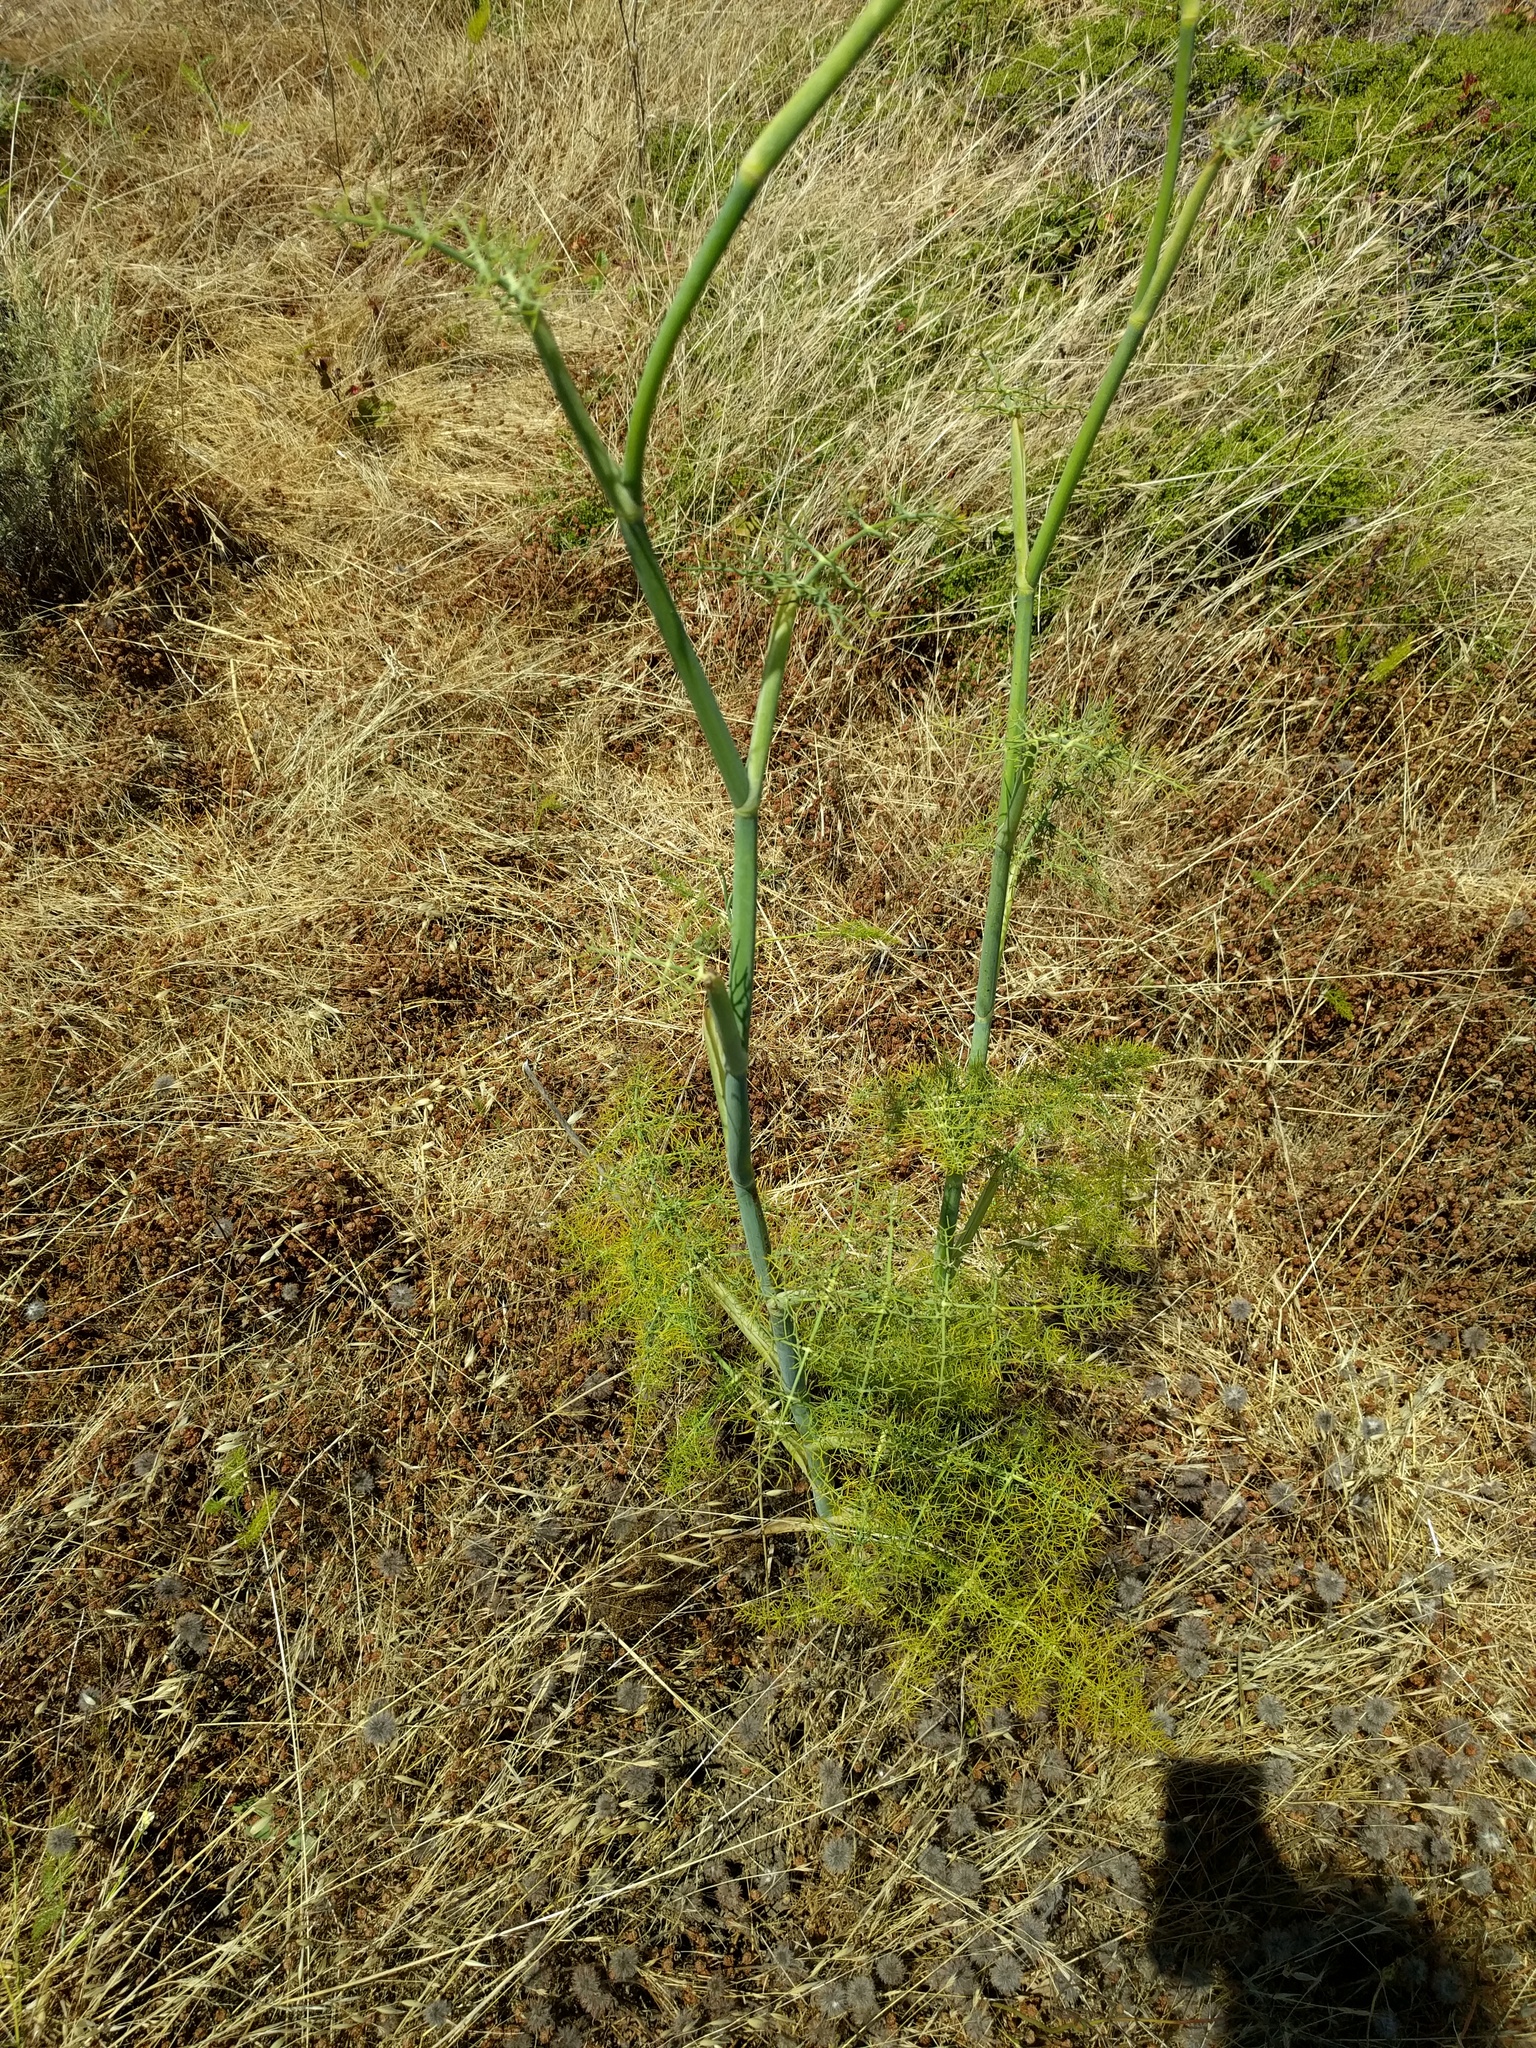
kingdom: Plantae
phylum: Tracheophyta
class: Magnoliopsida
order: Apiales
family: Apiaceae
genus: Foeniculum
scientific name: Foeniculum vulgare
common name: Fennel
